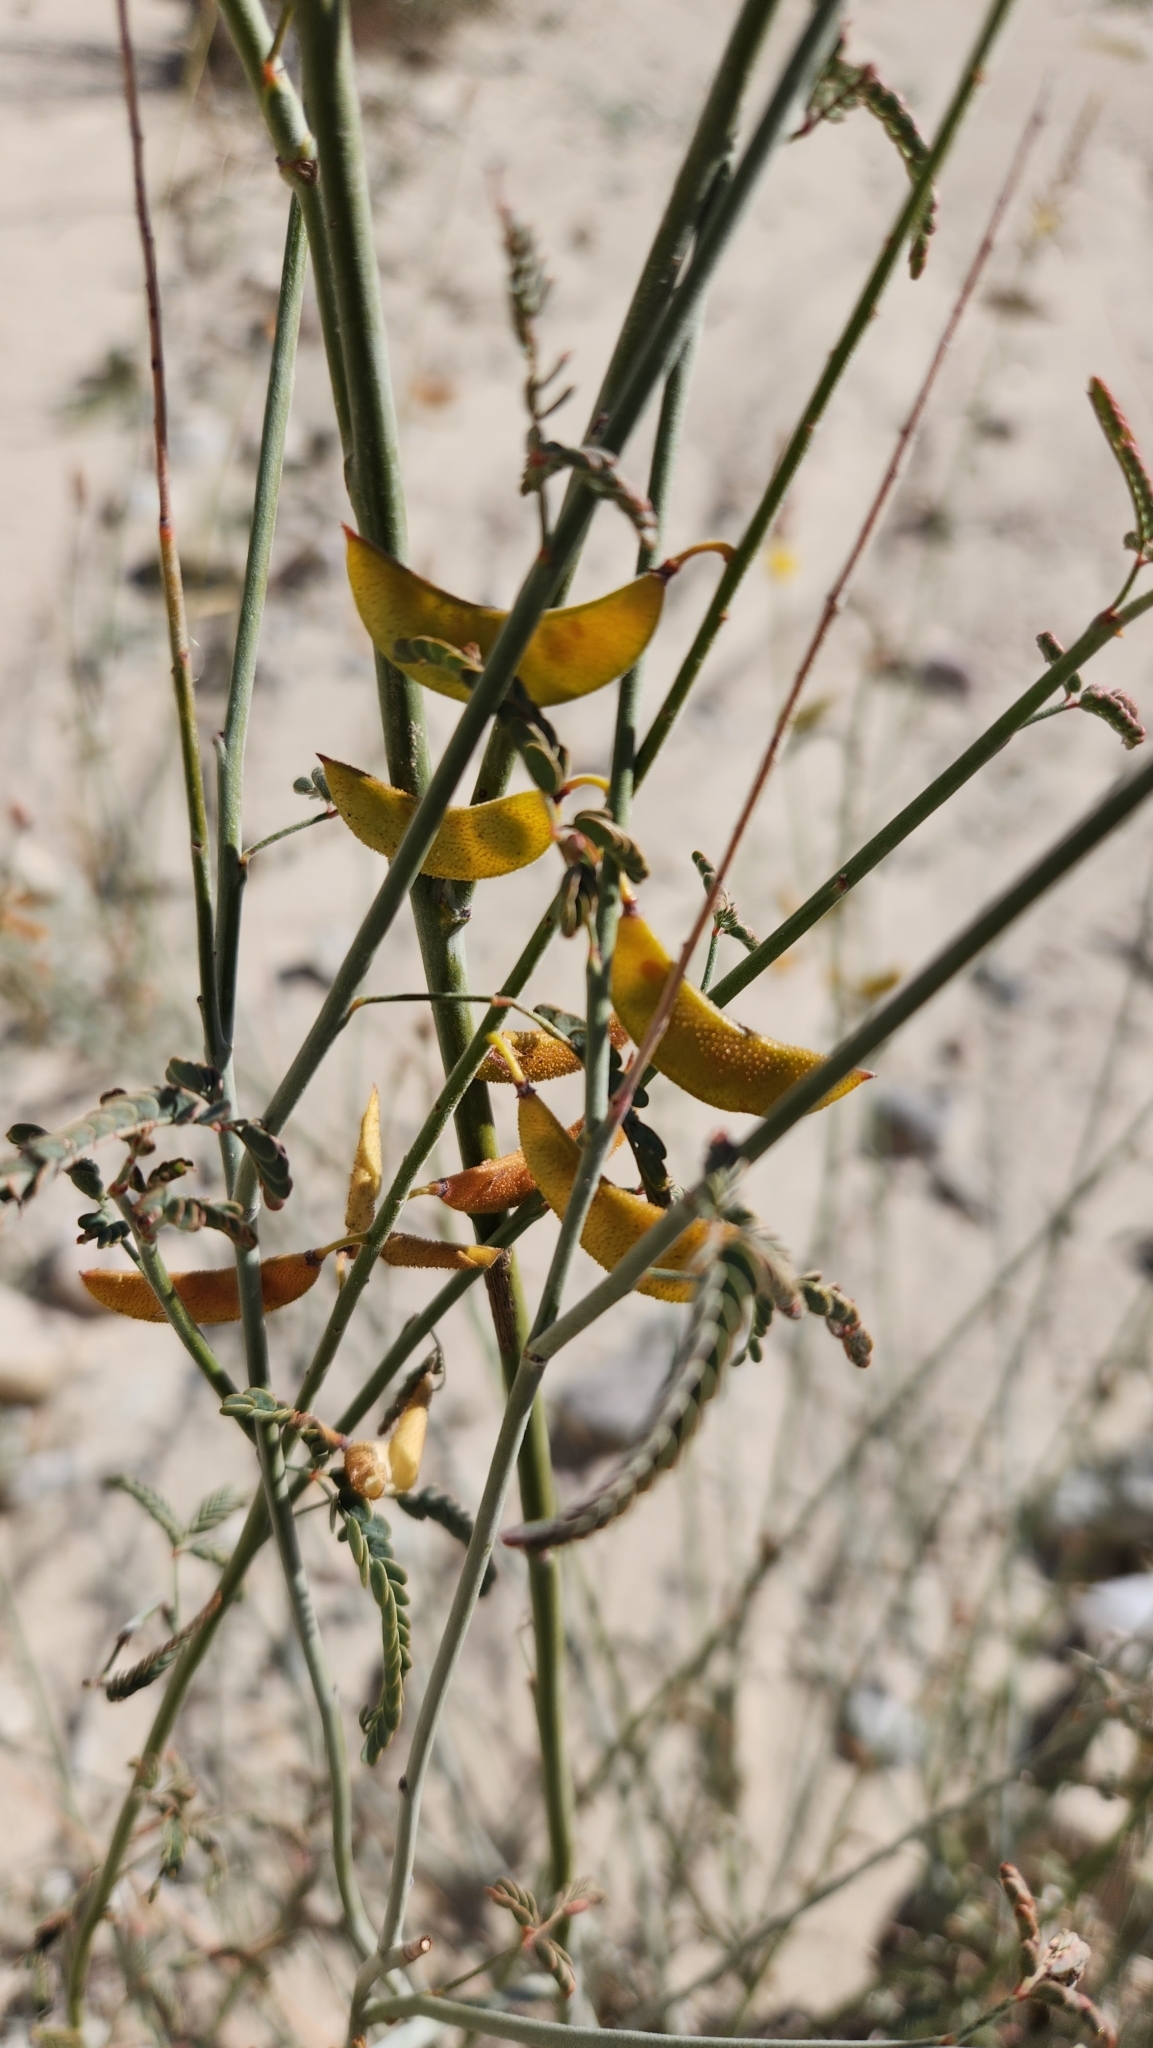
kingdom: Plantae
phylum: Tracheophyta
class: Magnoliopsida
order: Fabales
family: Fabaceae
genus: Hoffmannseggia
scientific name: Hoffmannseggia microphylla
